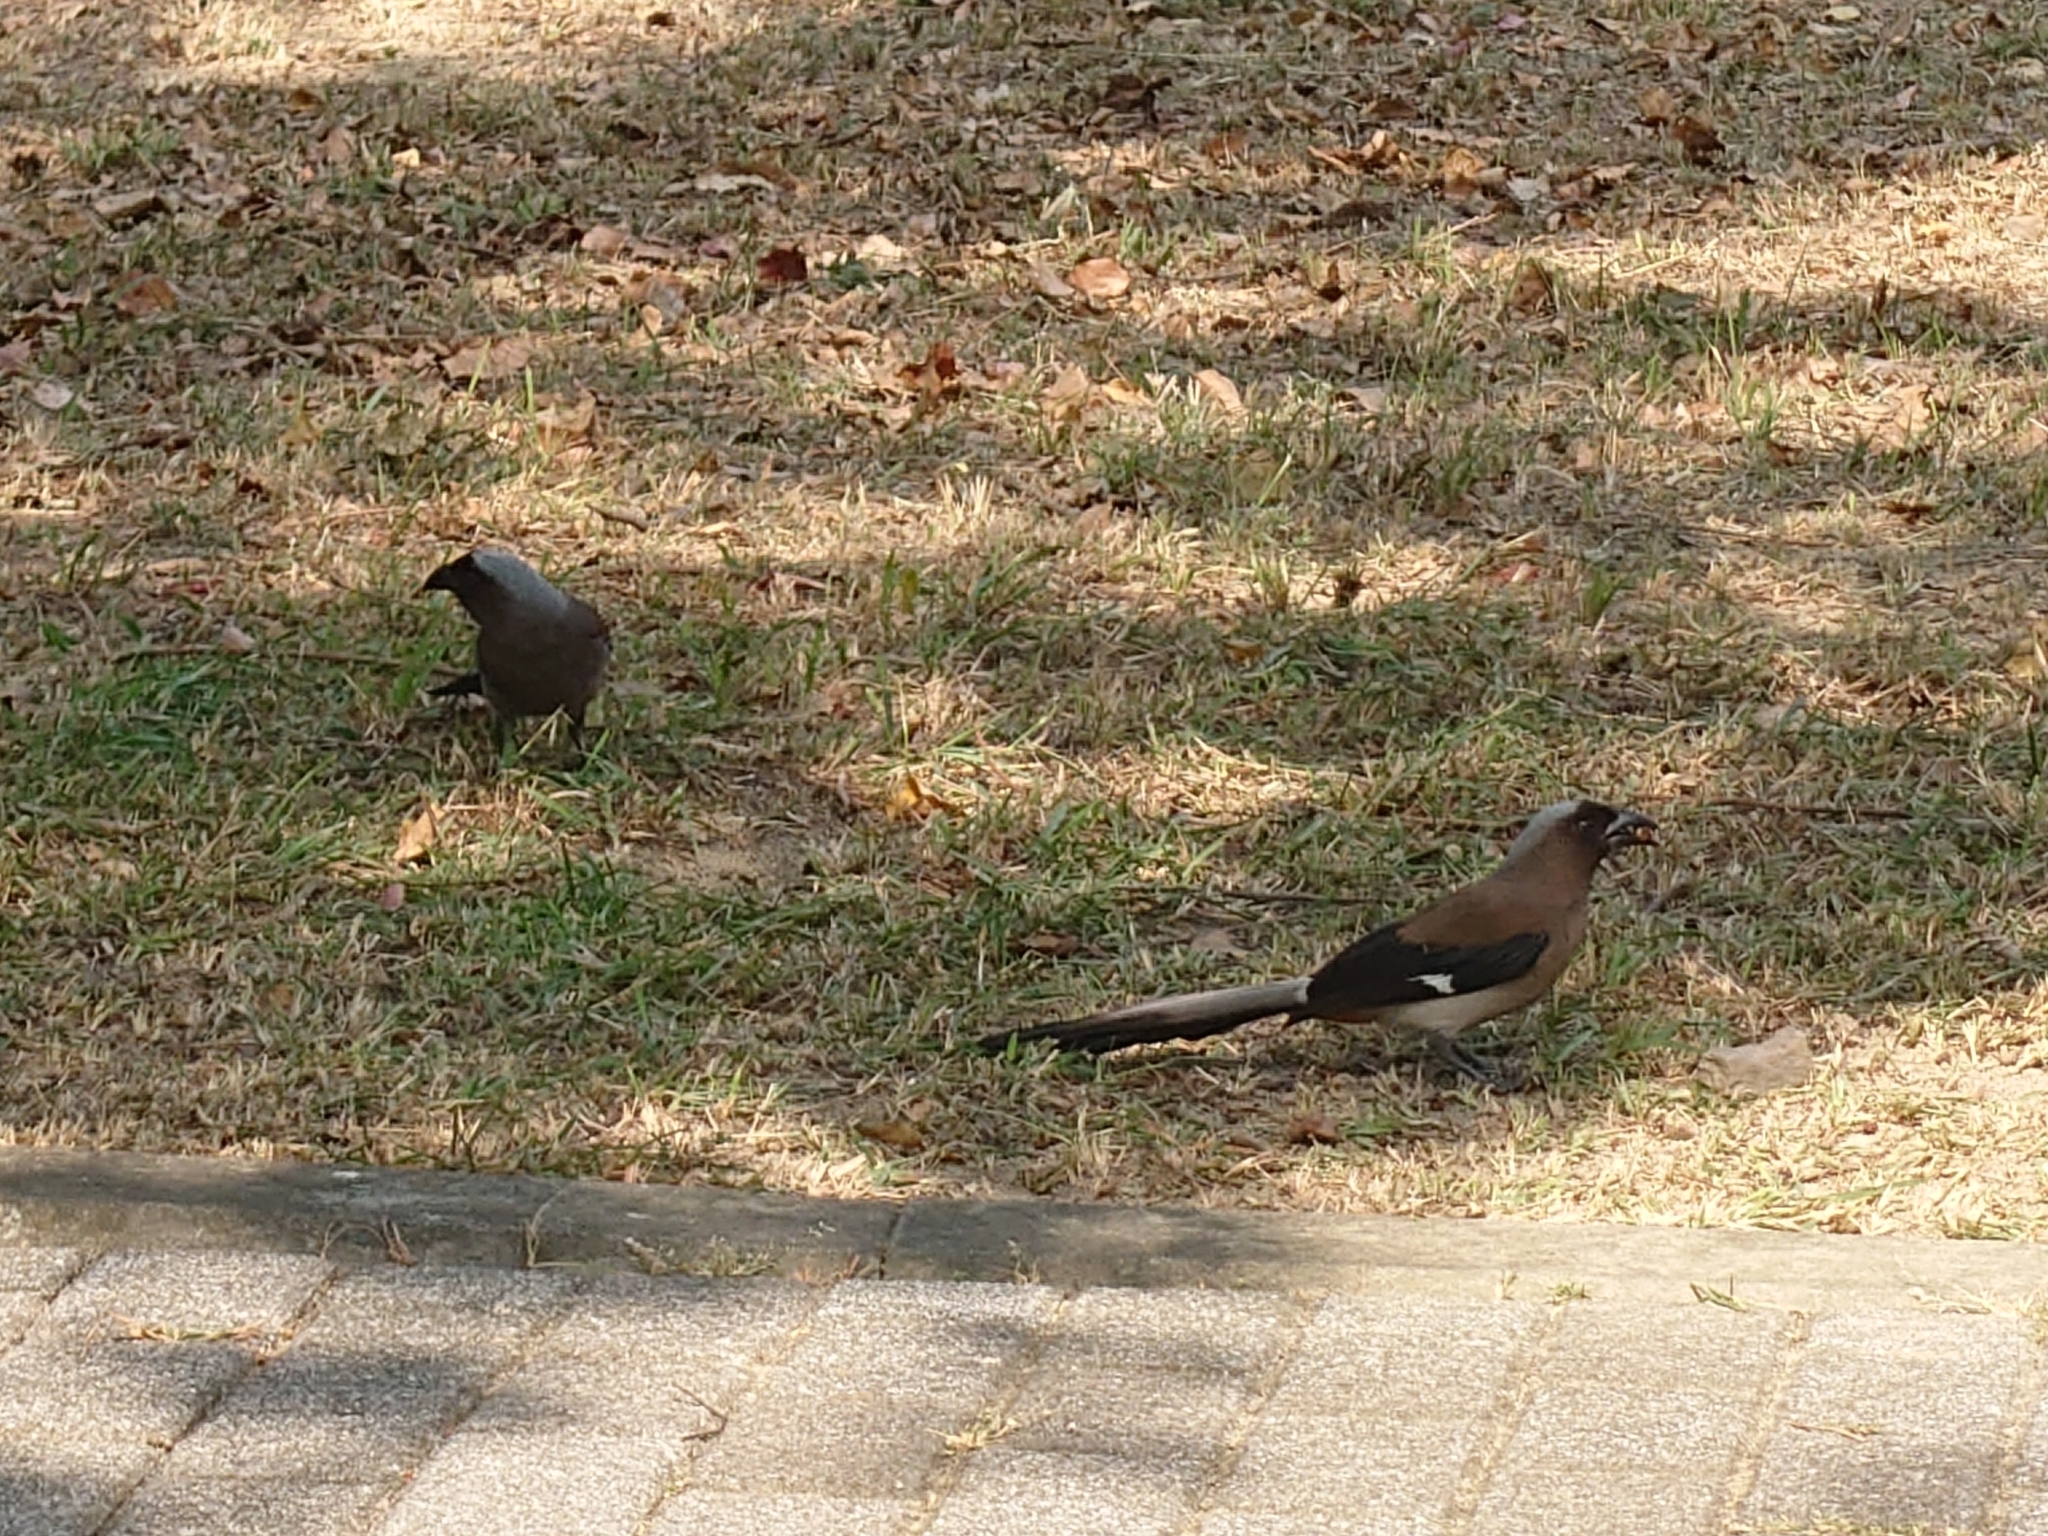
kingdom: Animalia
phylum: Chordata
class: Aves
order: Passeriformes
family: Corvidae
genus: Dendrocitta
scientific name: Dendrocitta formosae
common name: Grey treepie
